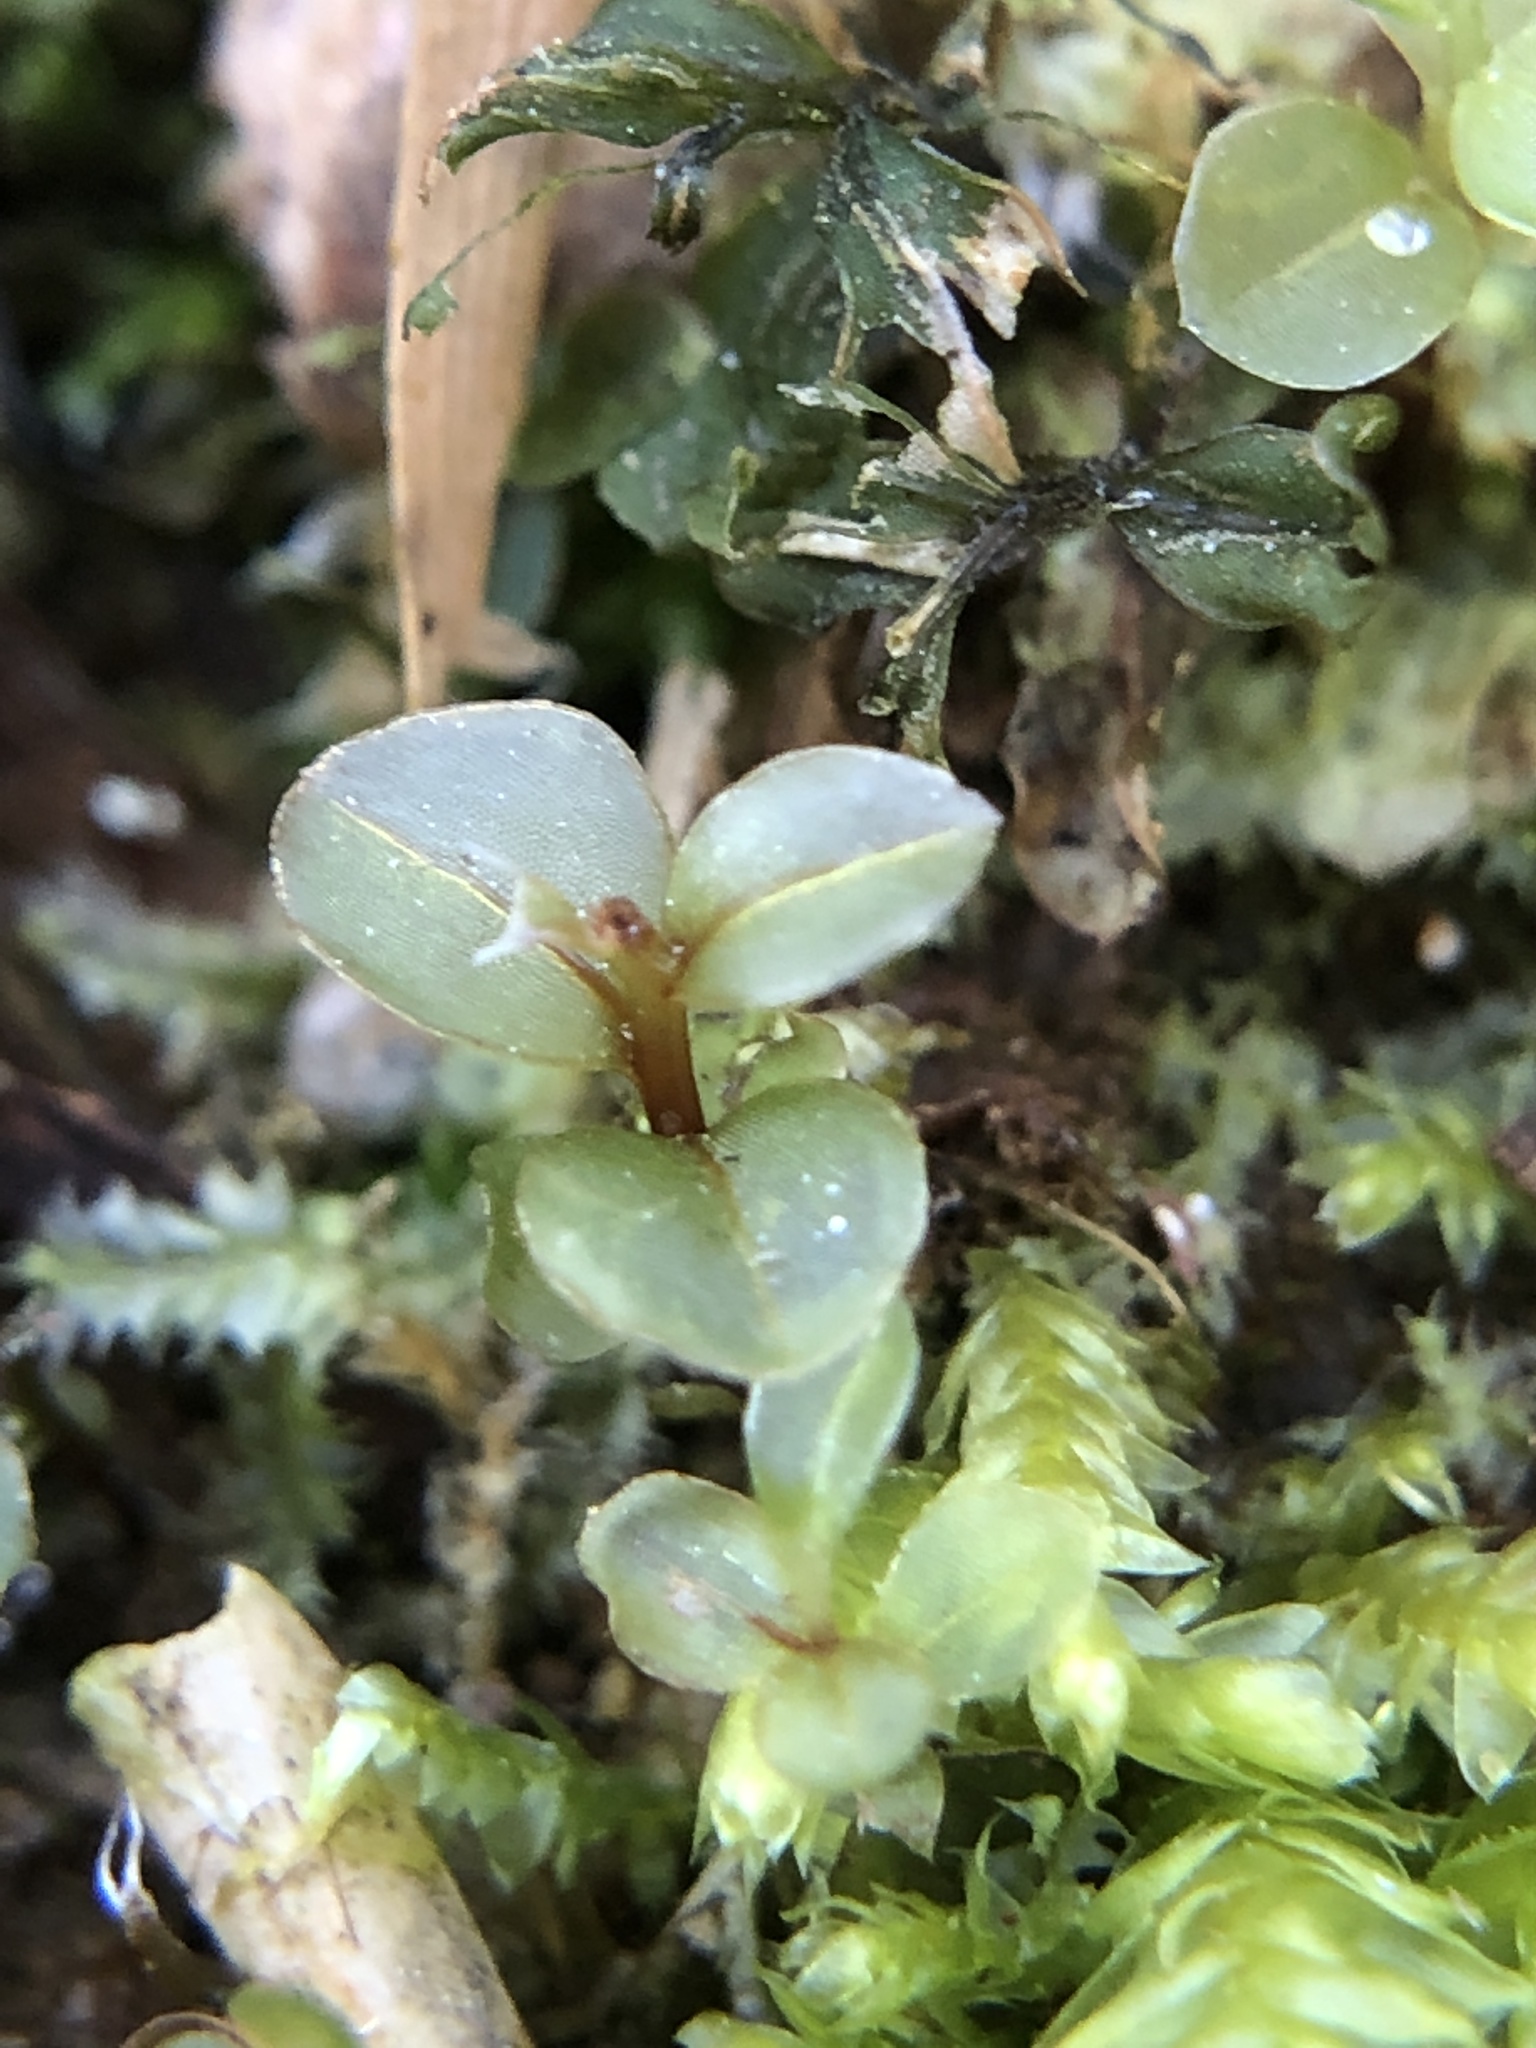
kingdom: Plantae
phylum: Bryophyta
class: Bryopsida
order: Bryales
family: Mniaceae
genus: Rhizomnium
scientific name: Rhizomnium punctatum
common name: Dotted leafy moss
